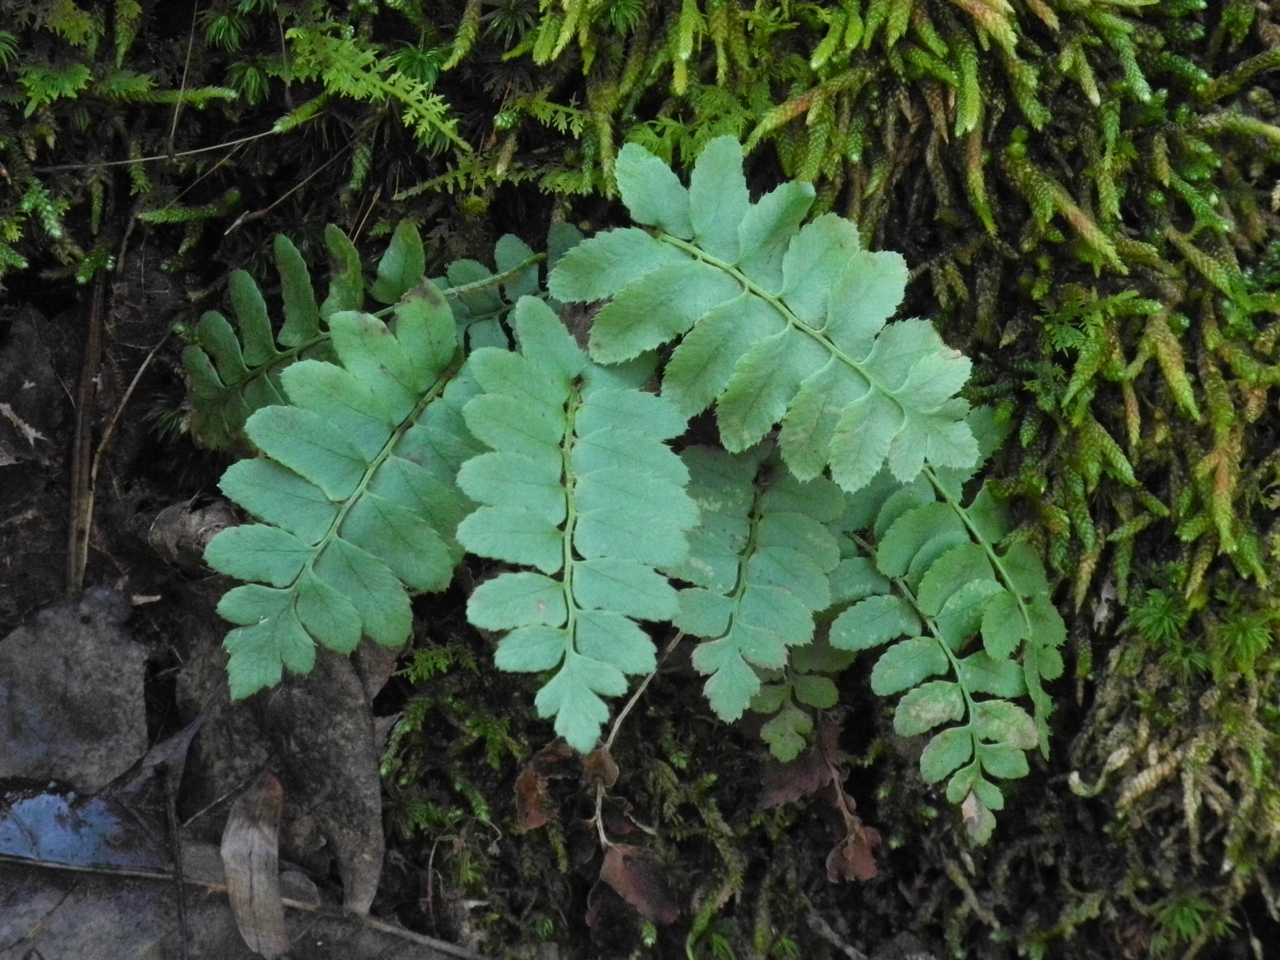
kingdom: Plantae
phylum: Tracheophyta
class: Polypodiopsida
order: Polypodiales
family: Dryopteridaceae
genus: Polystichum
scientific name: Polystichum acrostichoides
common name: Christmas fern
